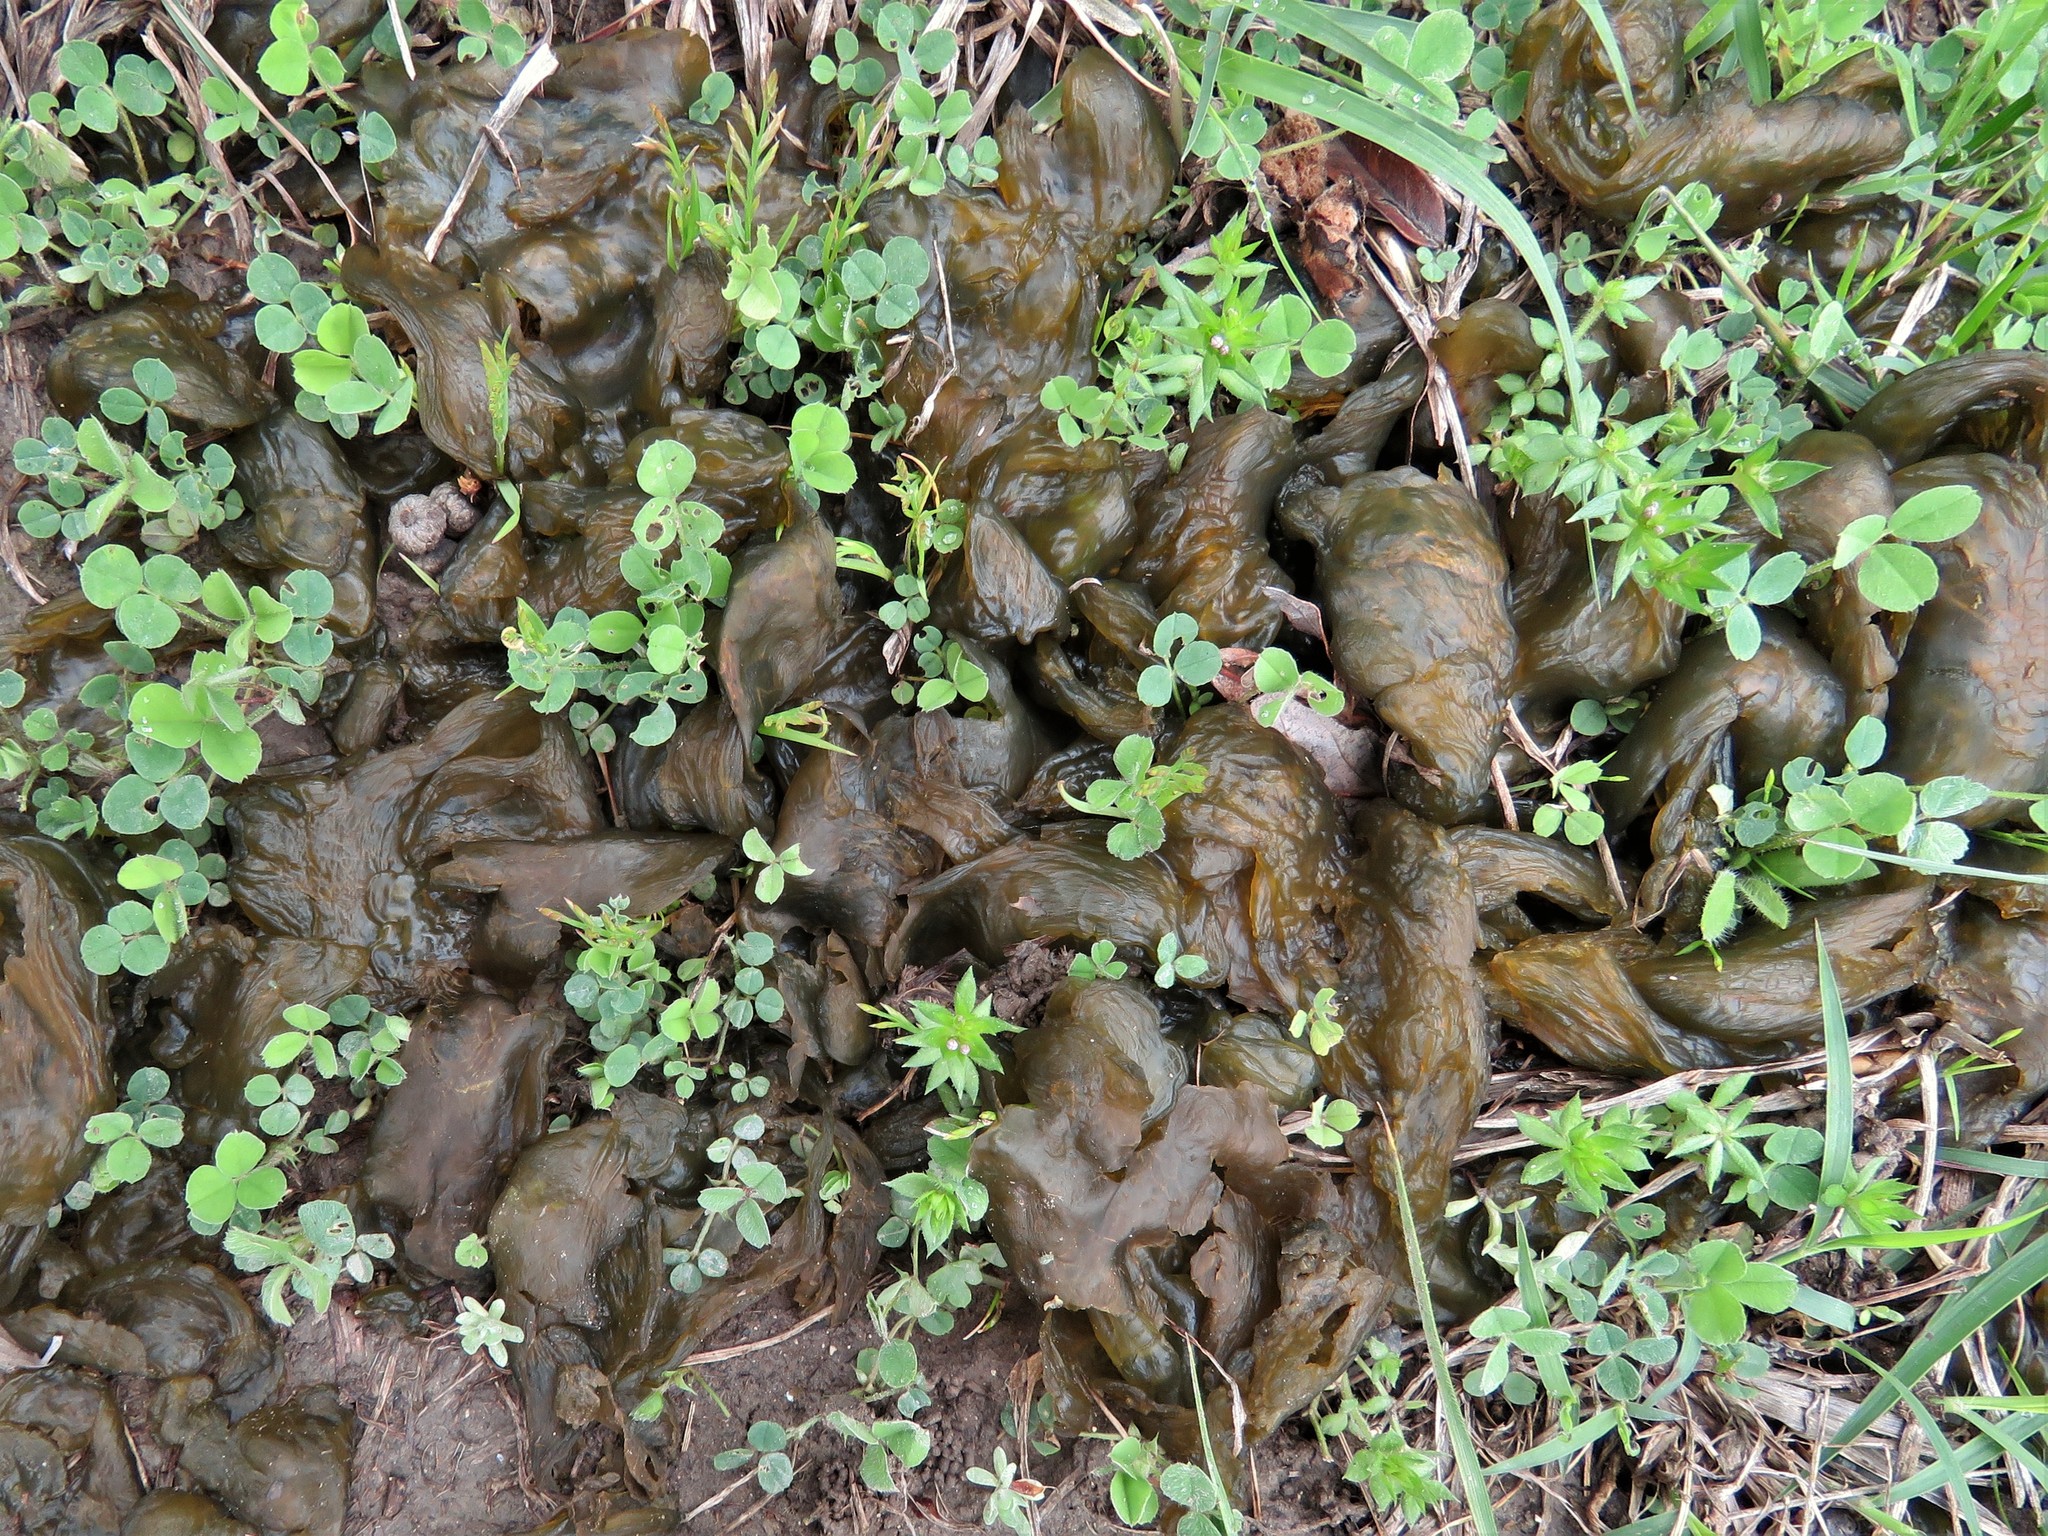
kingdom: Bacteria
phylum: Cyanobacteria
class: Cyanobacteriia
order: Cyanobacteriales
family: Nostocaceae
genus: Nostoc
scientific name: Nostoc commune
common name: Star jelly
